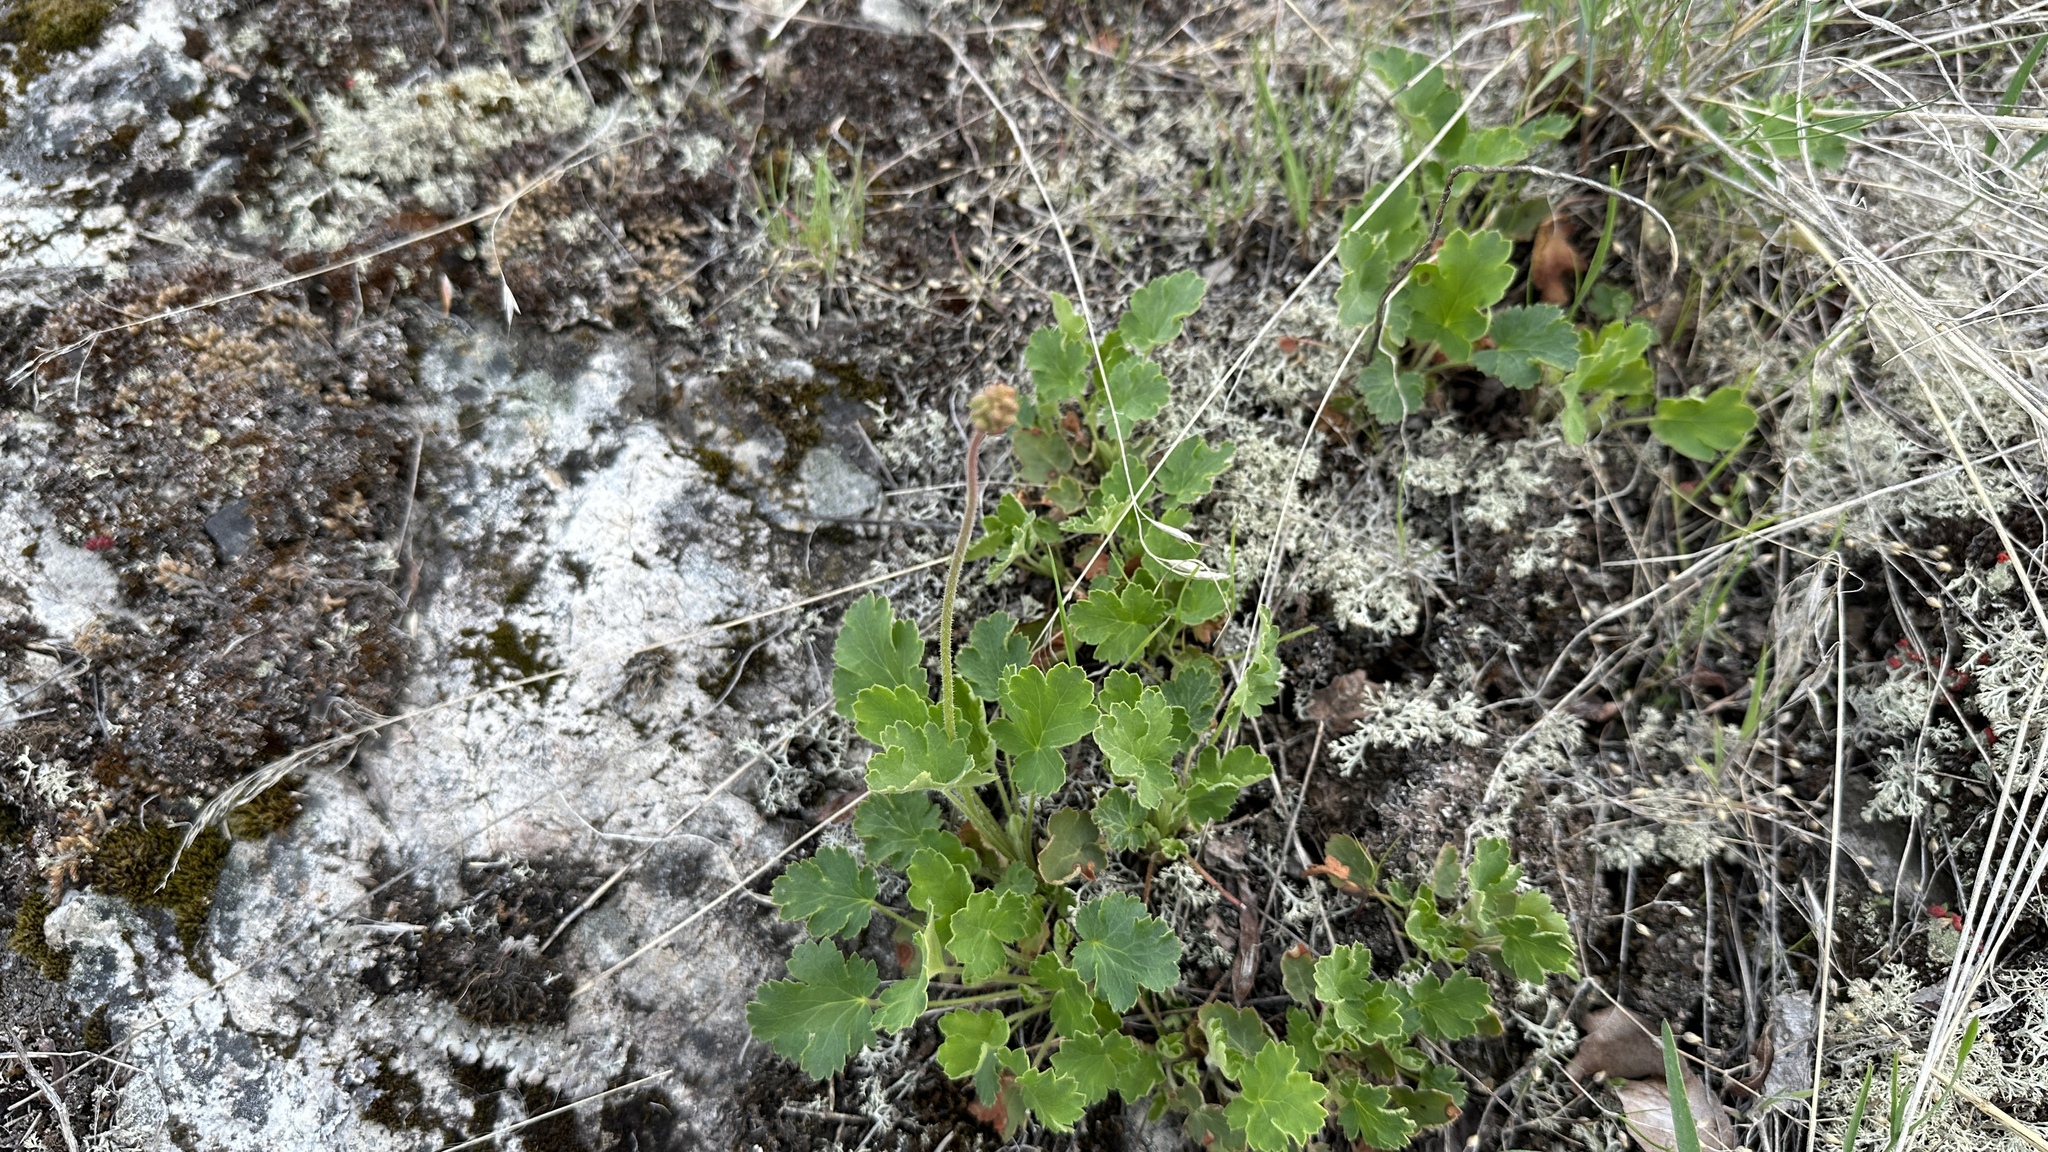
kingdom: Plantae
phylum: Tracheophyta
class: Magnoliopsida
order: Saxifragales
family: Saxifragaceae
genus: Heuchera
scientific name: Heuchera cylindrica
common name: Mat alumroot
